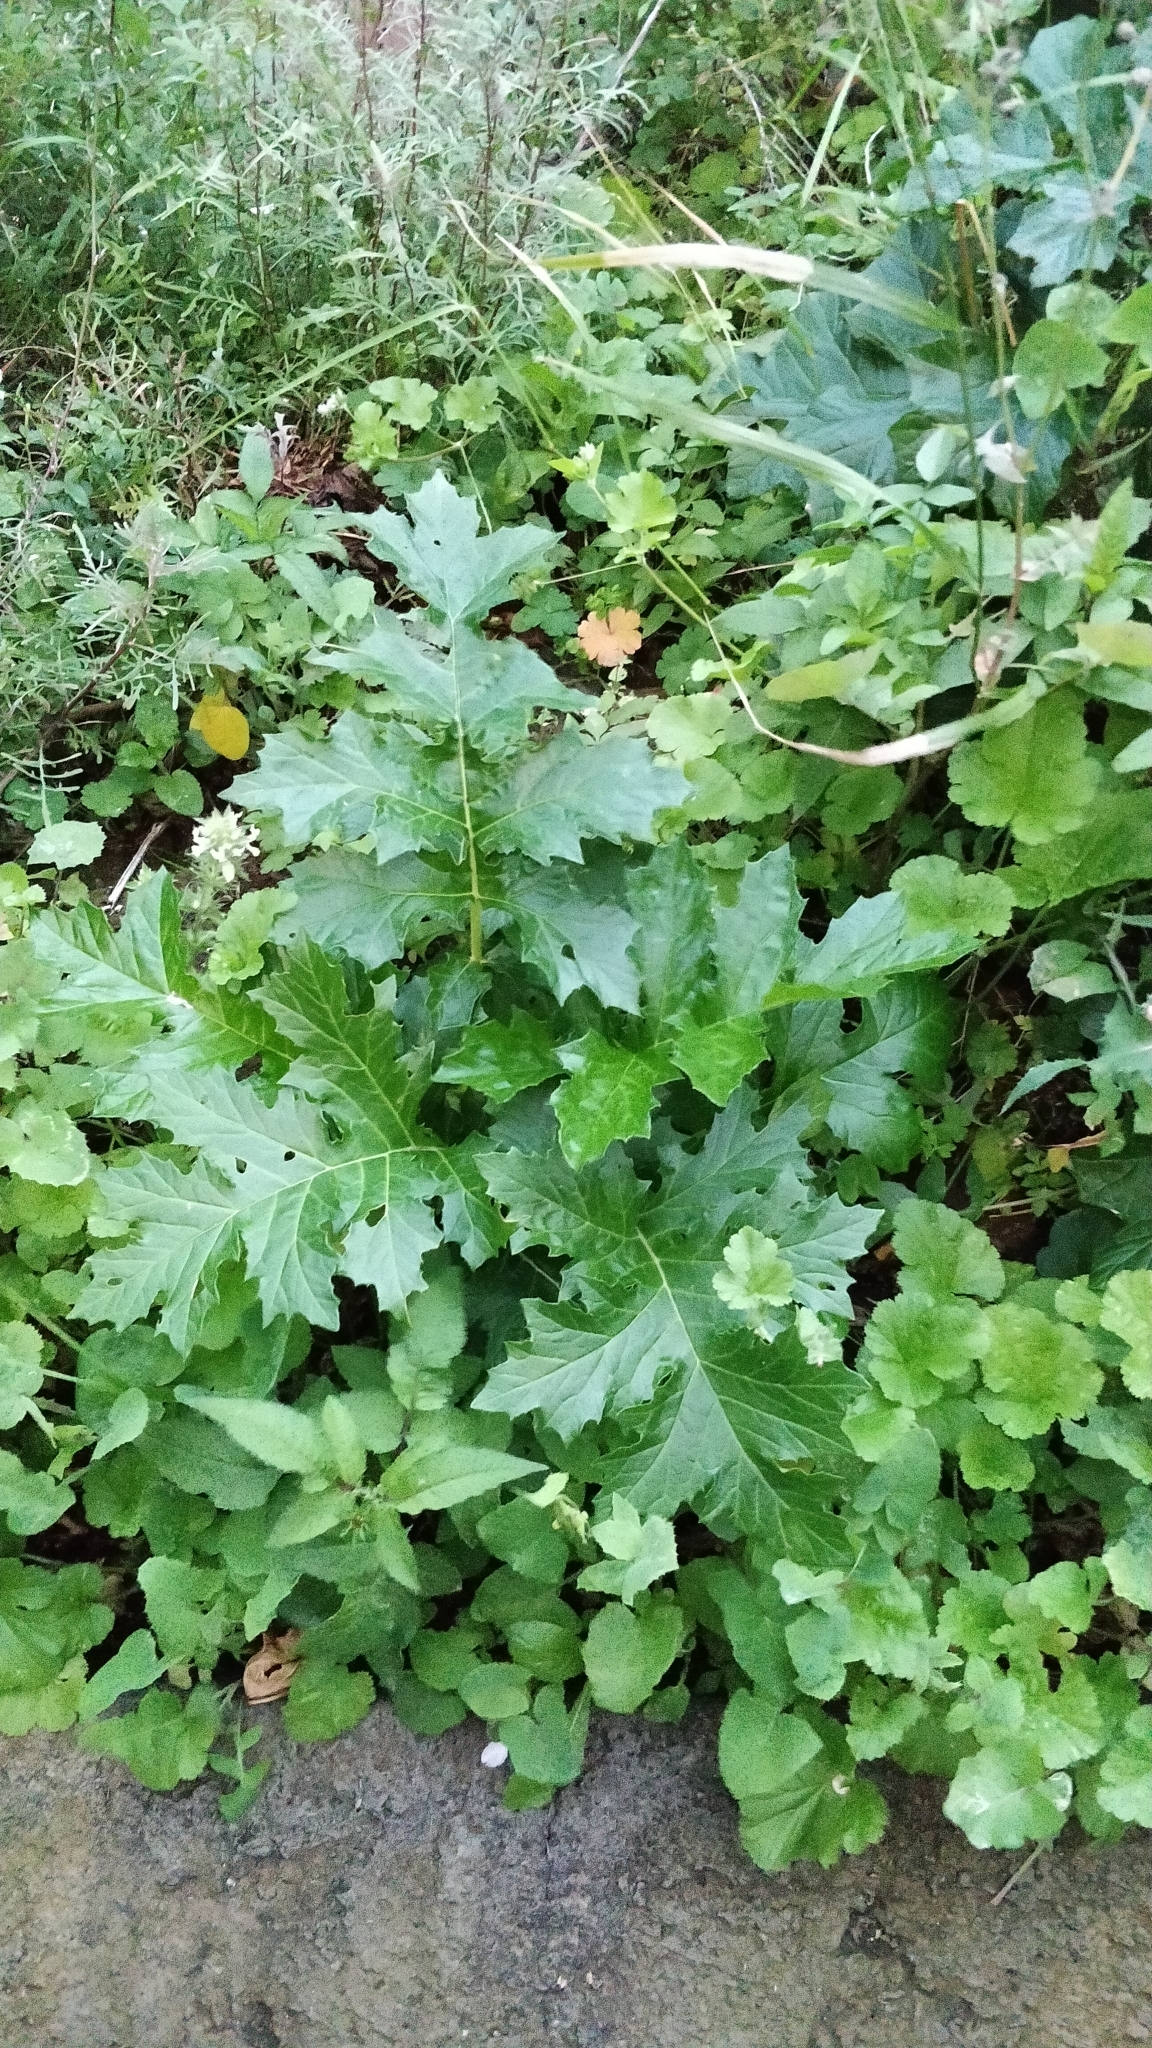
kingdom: Plantae
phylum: Tracheophyta
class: Magnoliopsida
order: Lamiales
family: Acanthaceae
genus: Acanthus
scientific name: Acanthus mollis
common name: Bear's-breech
